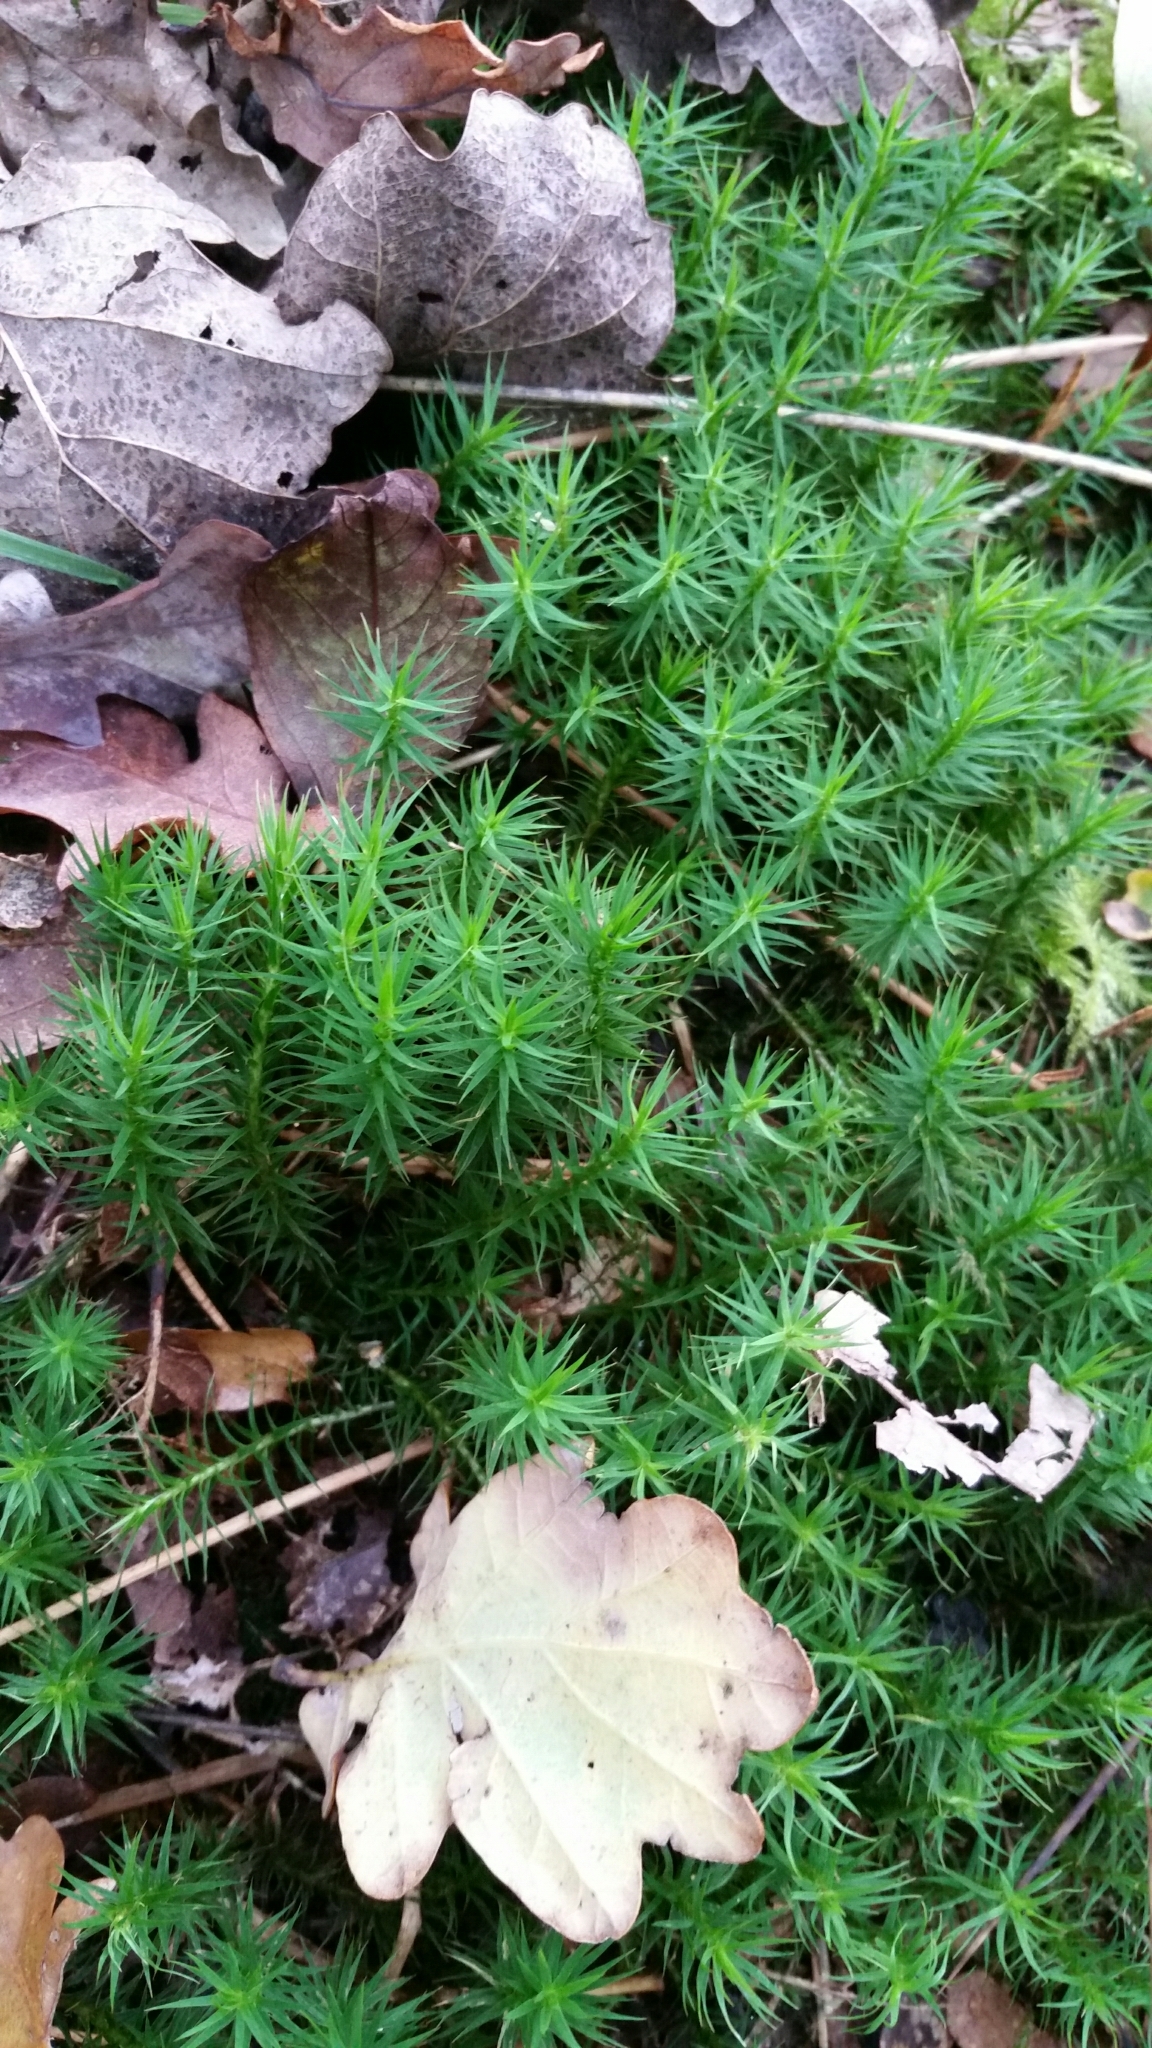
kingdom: Plantae
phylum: Bryophyta
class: Polytrichopsida
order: Polytrichales
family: Polytrichaceae
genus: Polytrichum
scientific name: Polytrichum formosum
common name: Bank haircap moss
